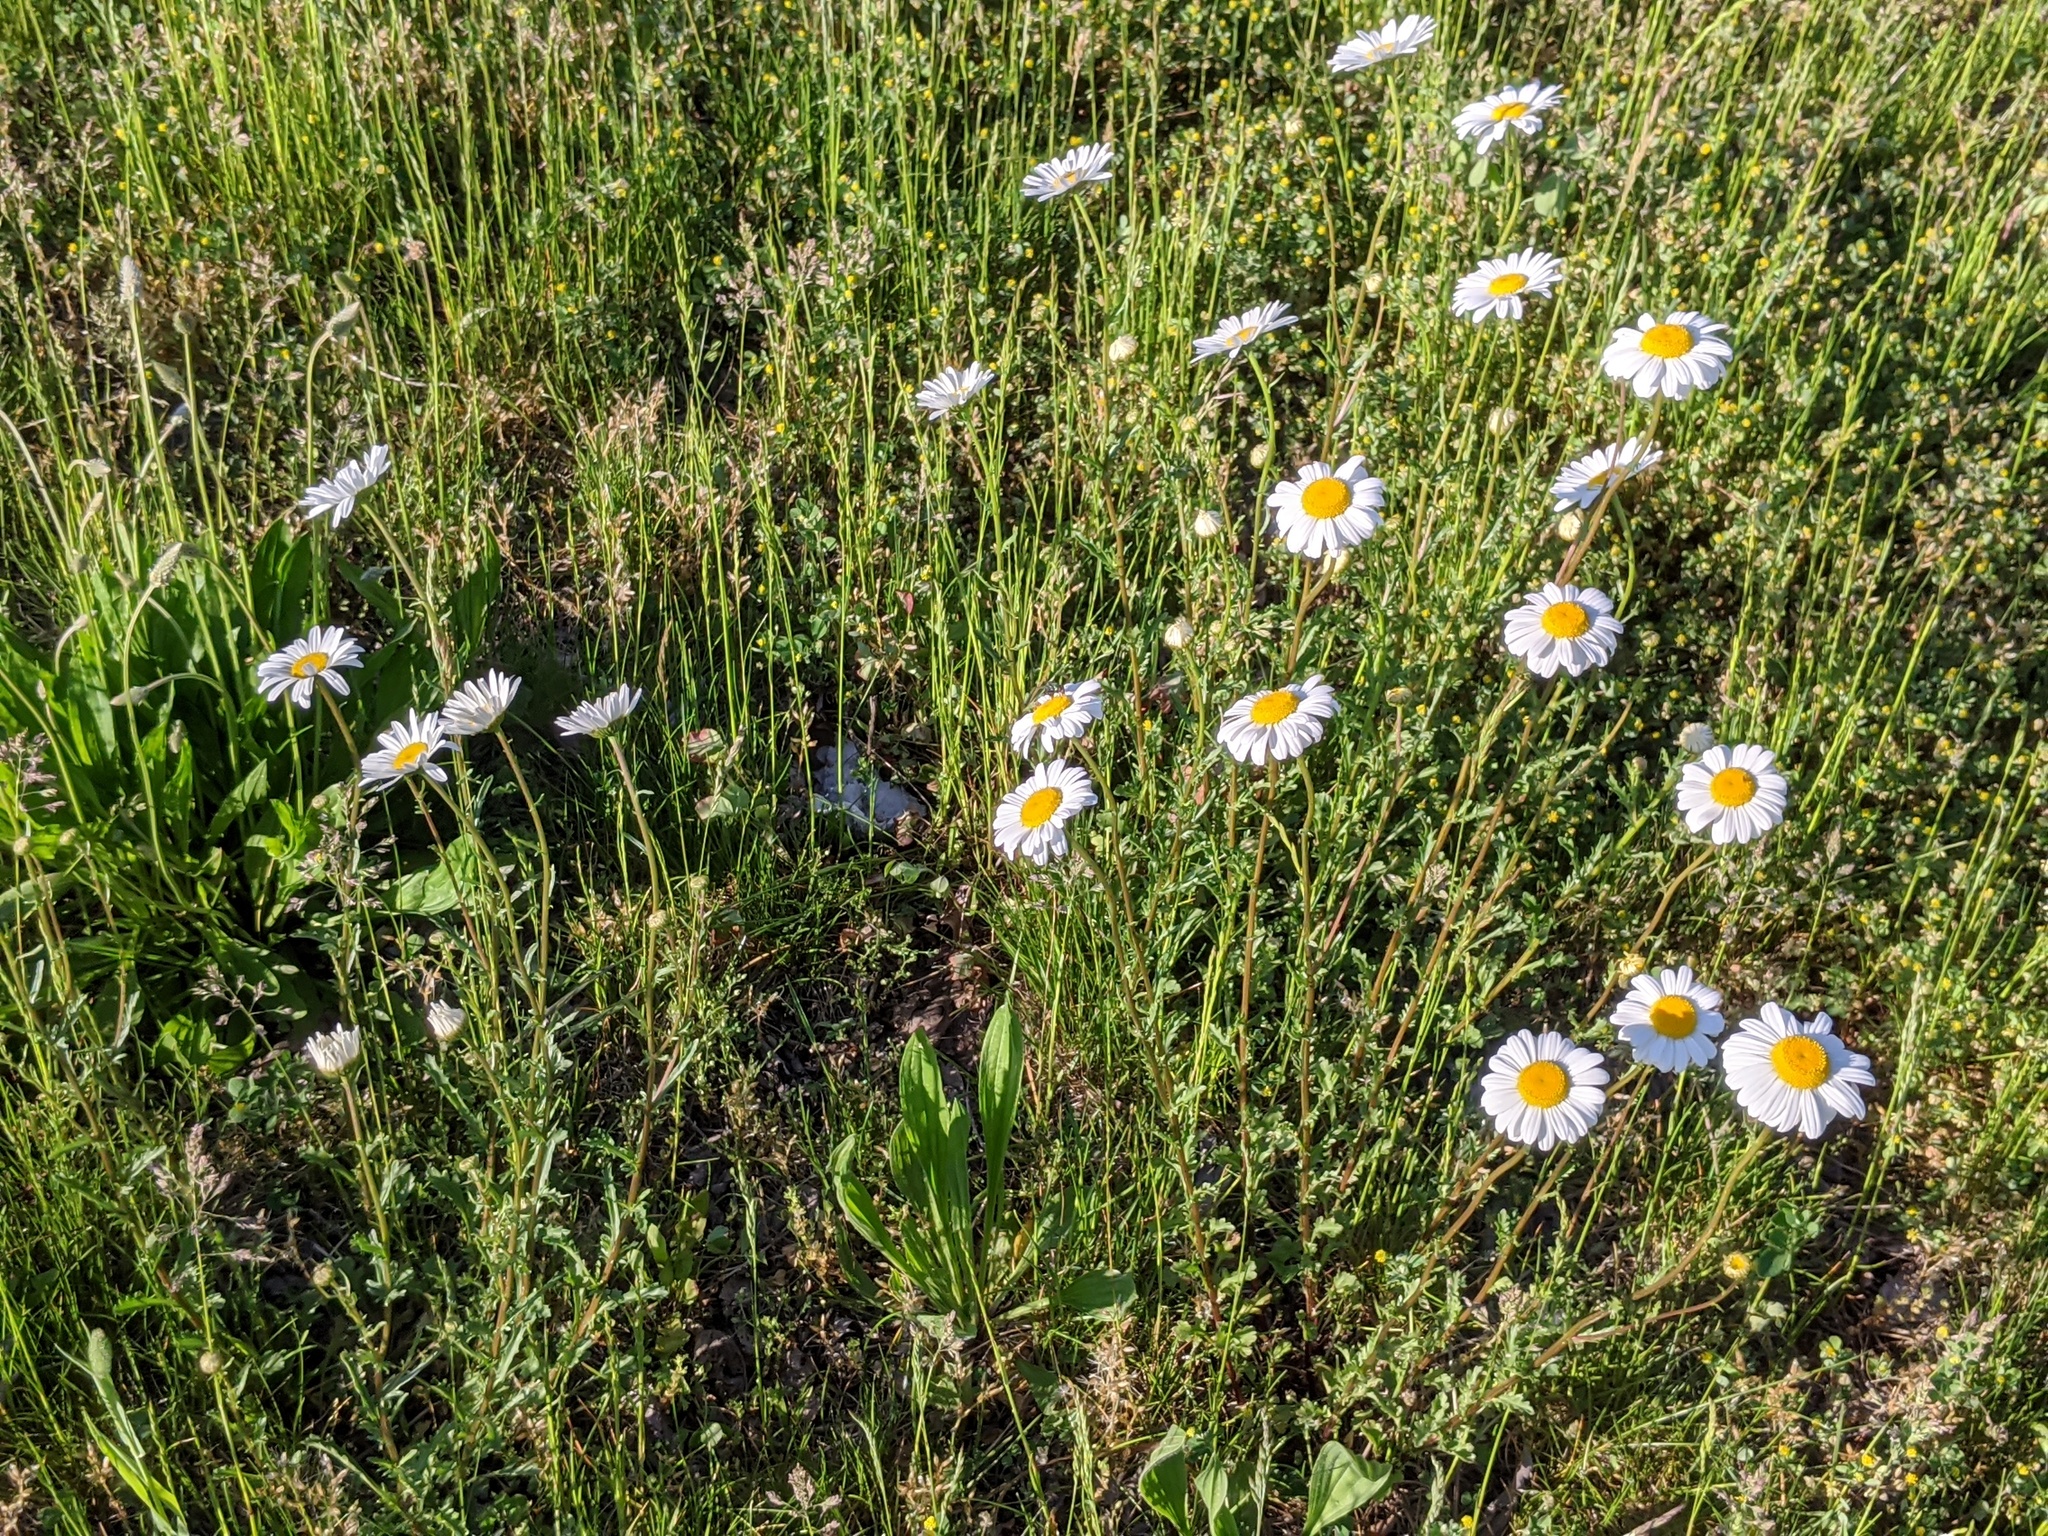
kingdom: Plantae
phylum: Tracheophyta
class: Magnoliopsida
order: Asterales
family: Asteraceae
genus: Leucanthemum
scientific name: Leucanthemum vulgare
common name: Oxeye daisy
